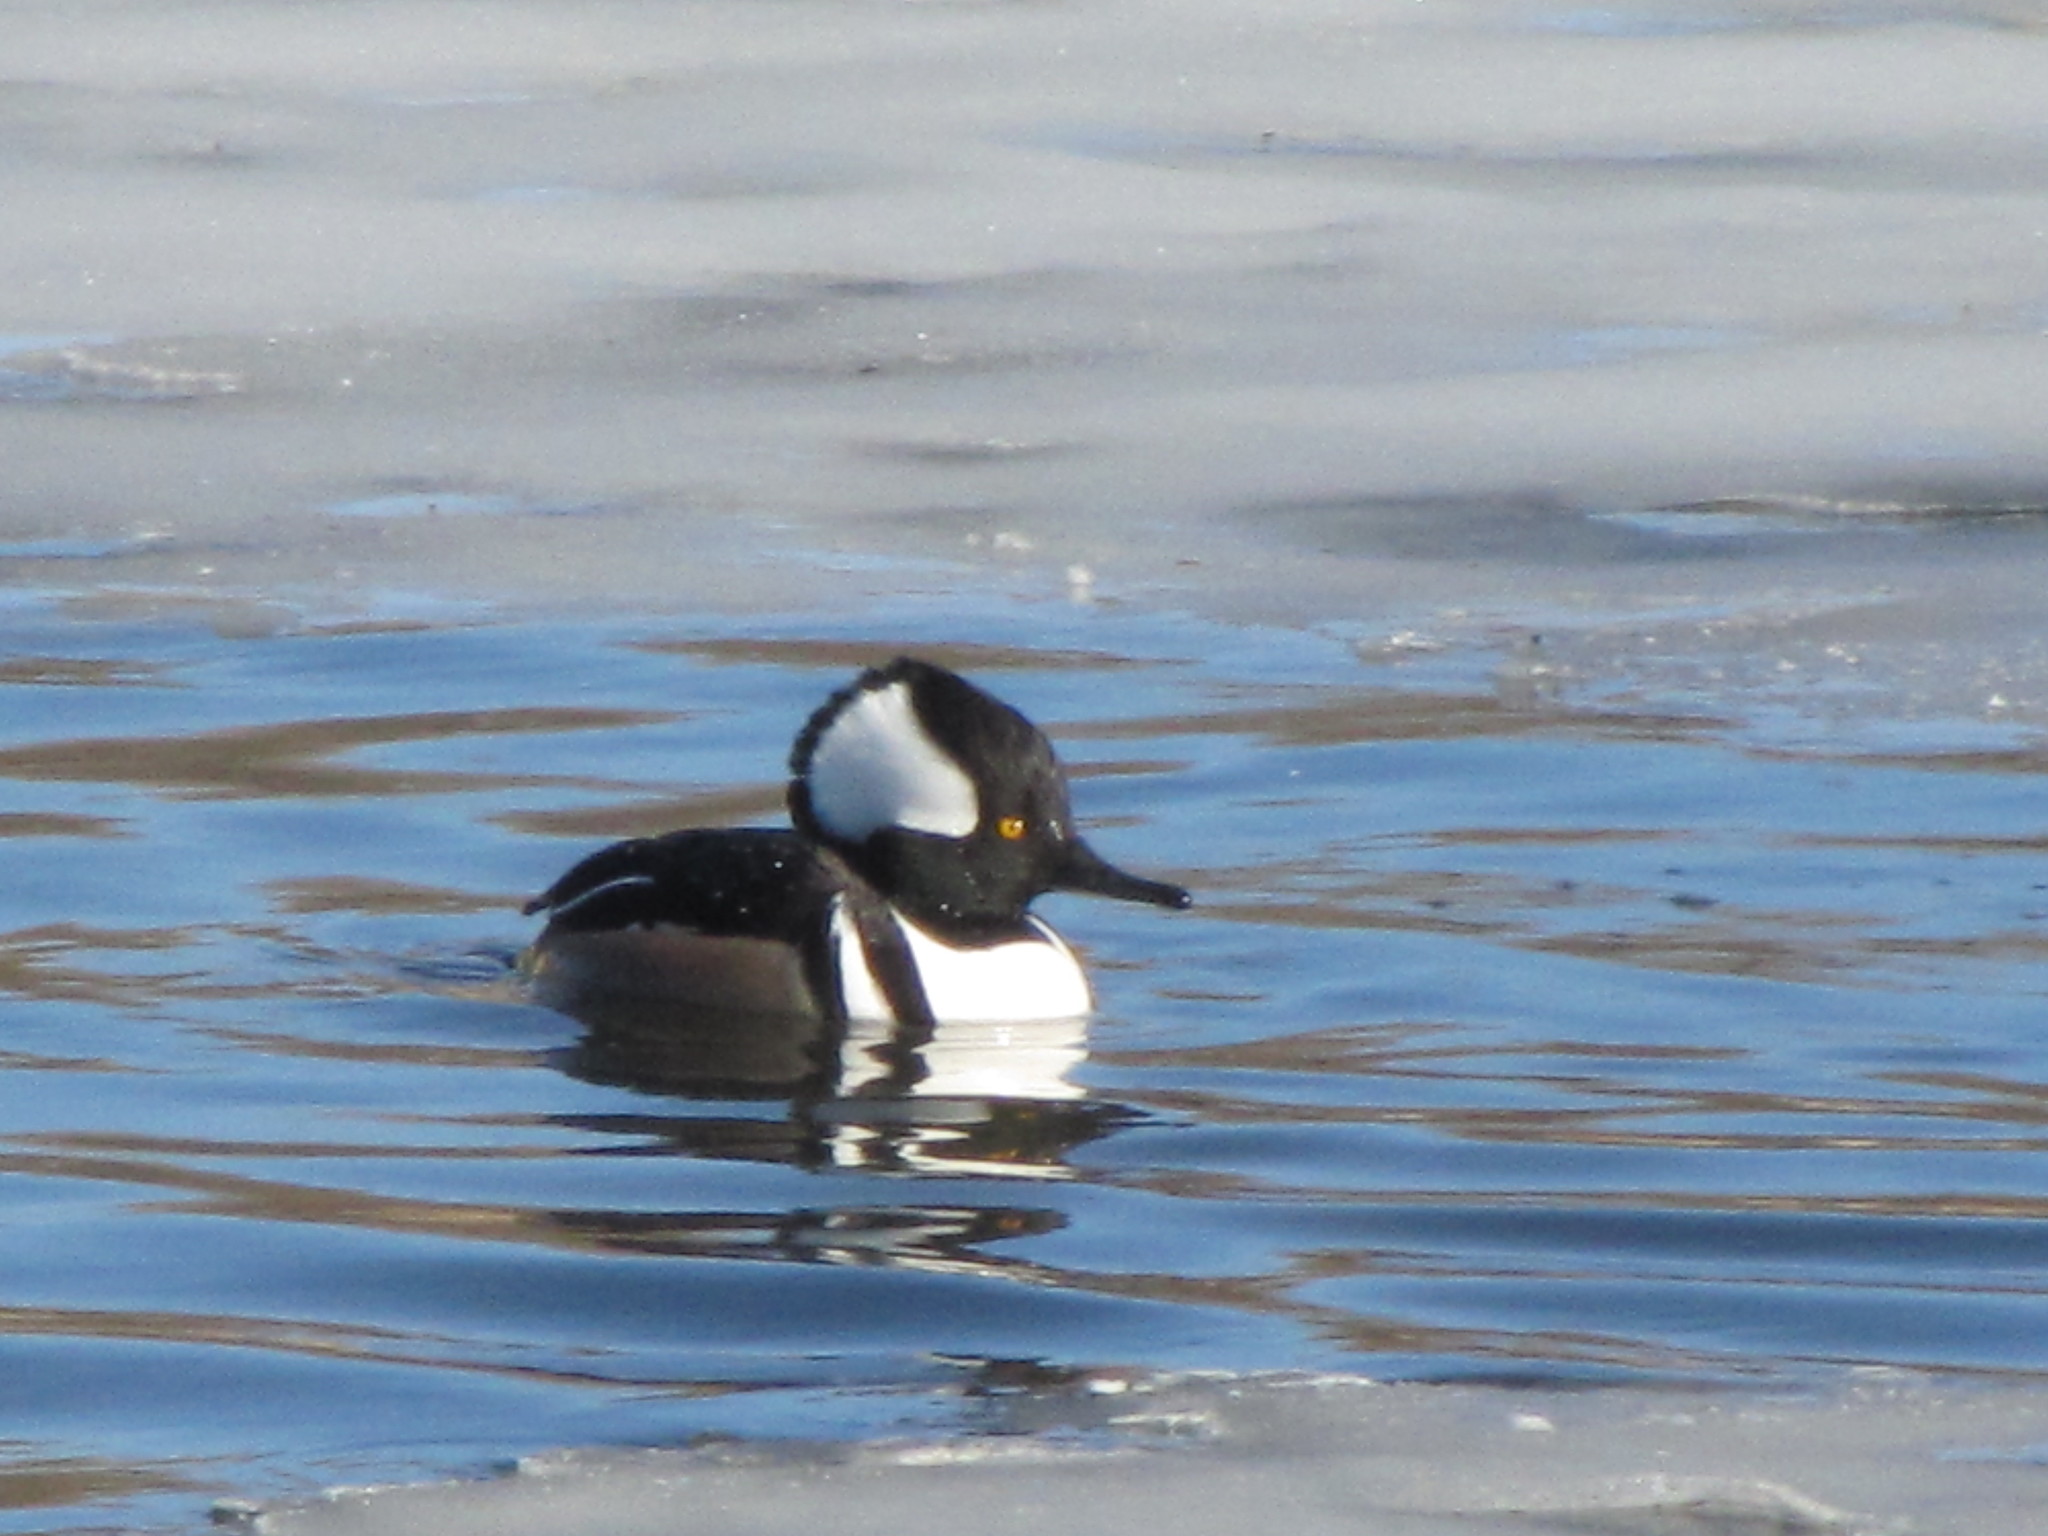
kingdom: Animalia
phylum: Chordata
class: Aves
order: Anseriformes
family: Anatidae
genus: Lophodytes
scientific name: Lophodytes cucullatus
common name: Hooded merganser
